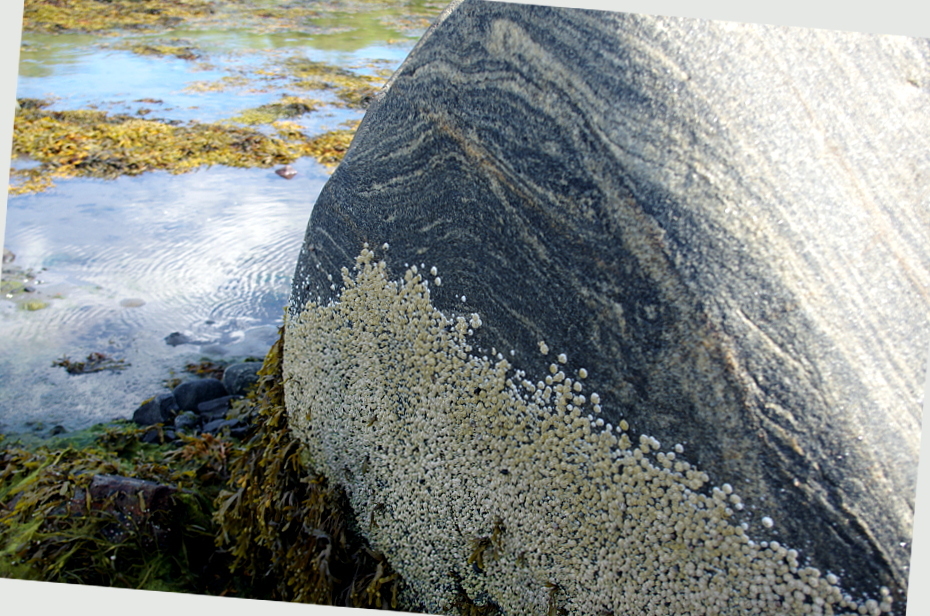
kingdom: Animalia
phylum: Arthropoda
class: Maxillopoda
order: Sessilia
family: Archaeobalanidae
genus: Semibalanus
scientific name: Semibalanus balanoides
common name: Acorn barnacle
